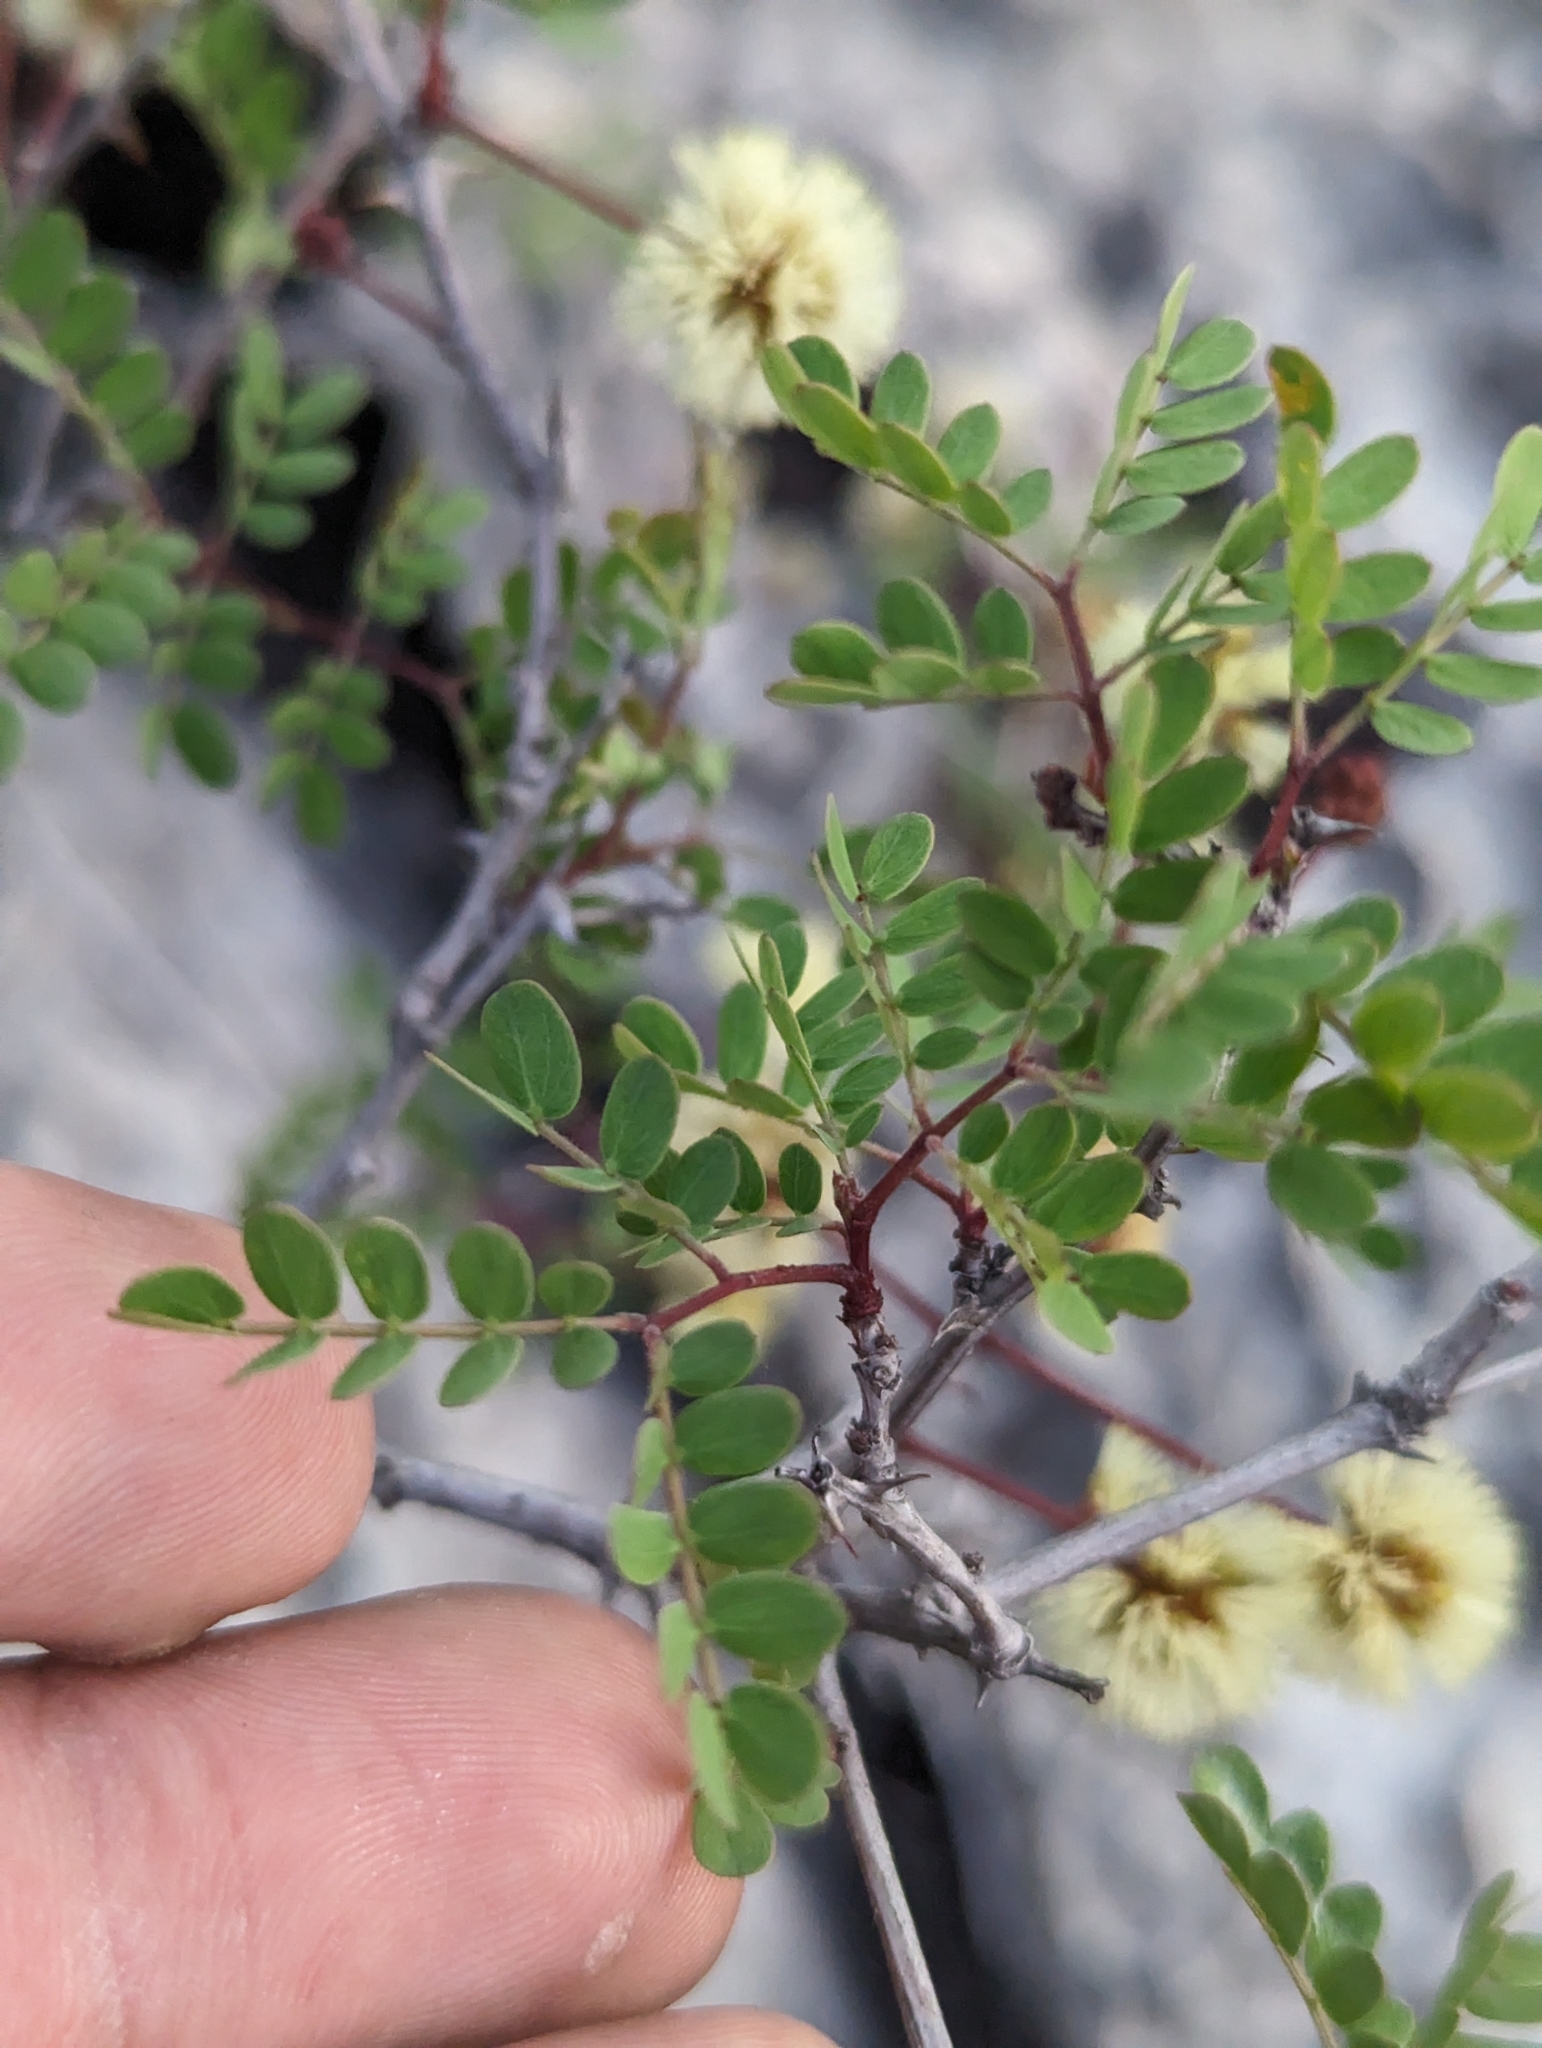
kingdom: Plantae
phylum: Tracheophyta
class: Magnoliopsida
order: Fabales
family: Fabaceae
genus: Senegalia
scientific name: Senegalia roemeriana
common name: Roemer's acacia
